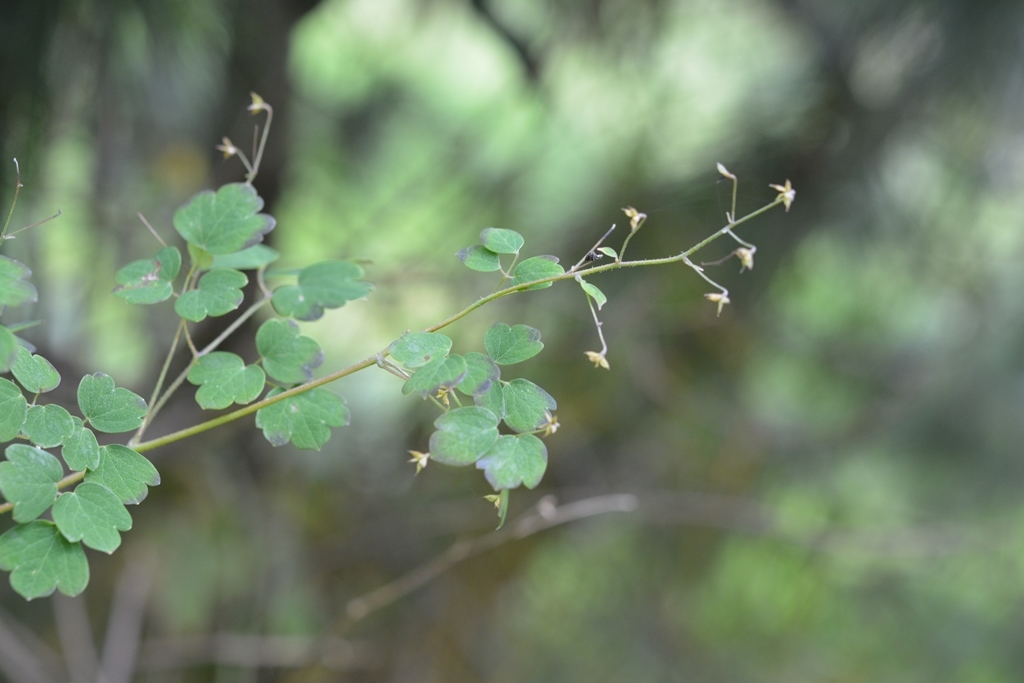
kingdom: Plantae
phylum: Tracheophyta
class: Magnoliopsida
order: Ranunculales
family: Ranunculaceae
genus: Thalictrum
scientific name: Thalictrum guatemalense
